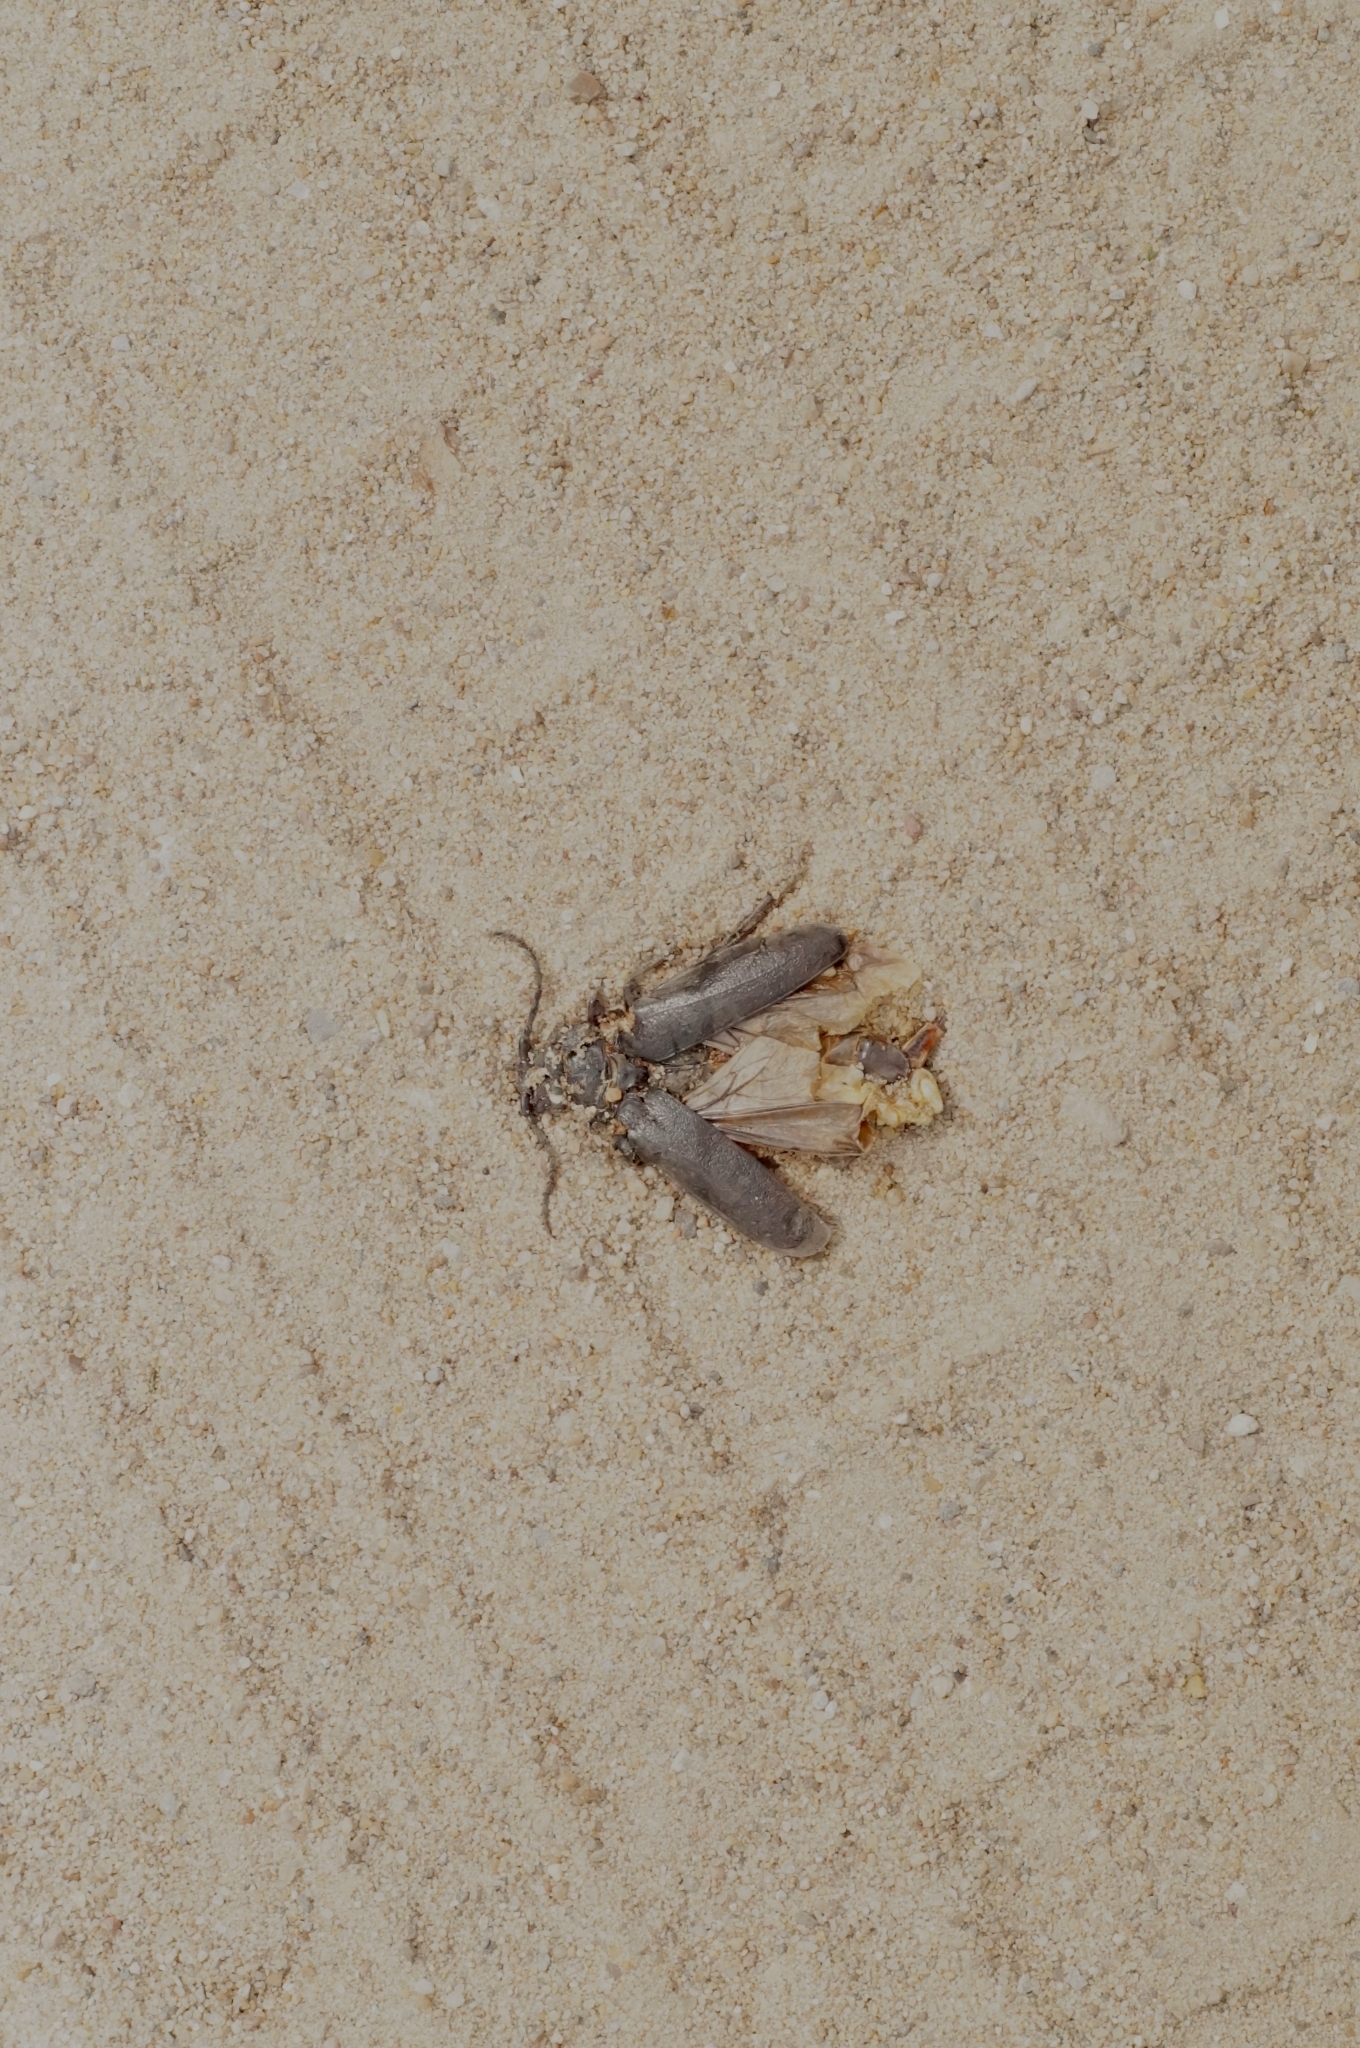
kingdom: Animalia
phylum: Arthropoda
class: Insecta
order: Coleoptera
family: Cerambycidae
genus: Prionus
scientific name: Prionus coriarius
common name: Tanner beetle
